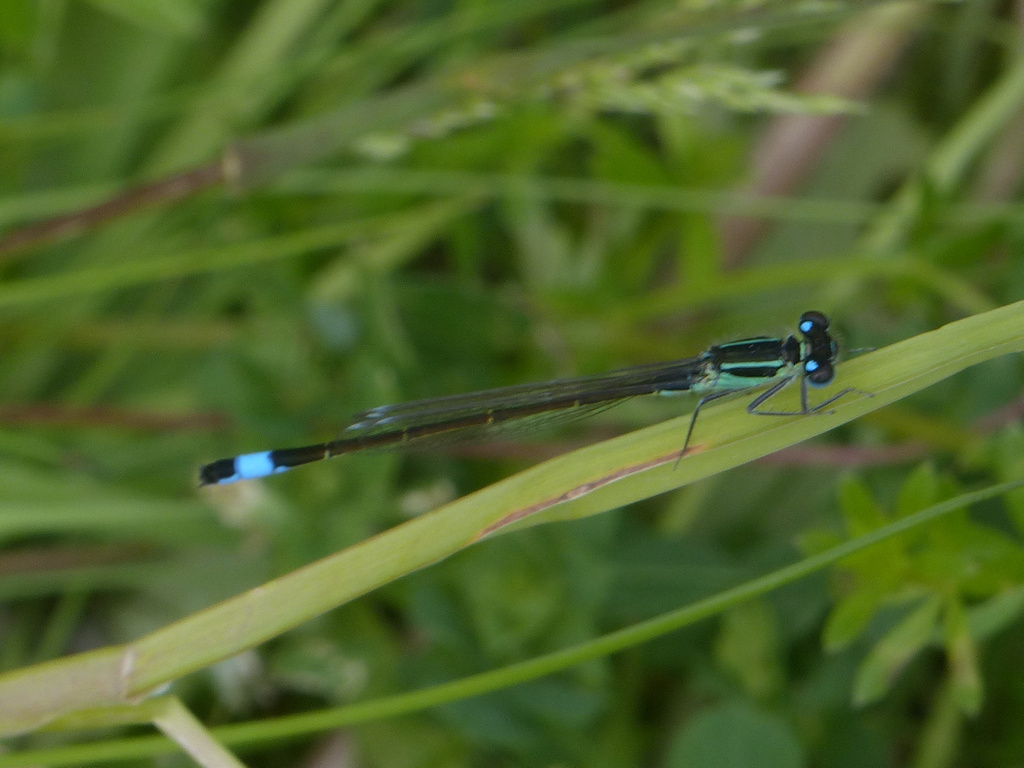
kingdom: Animalia
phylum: Arthropoda
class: Insecta
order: Odonata
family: Coenagrionidae
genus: Ischnura
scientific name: Ischnura elegans
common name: Blue-tailed damselfly
